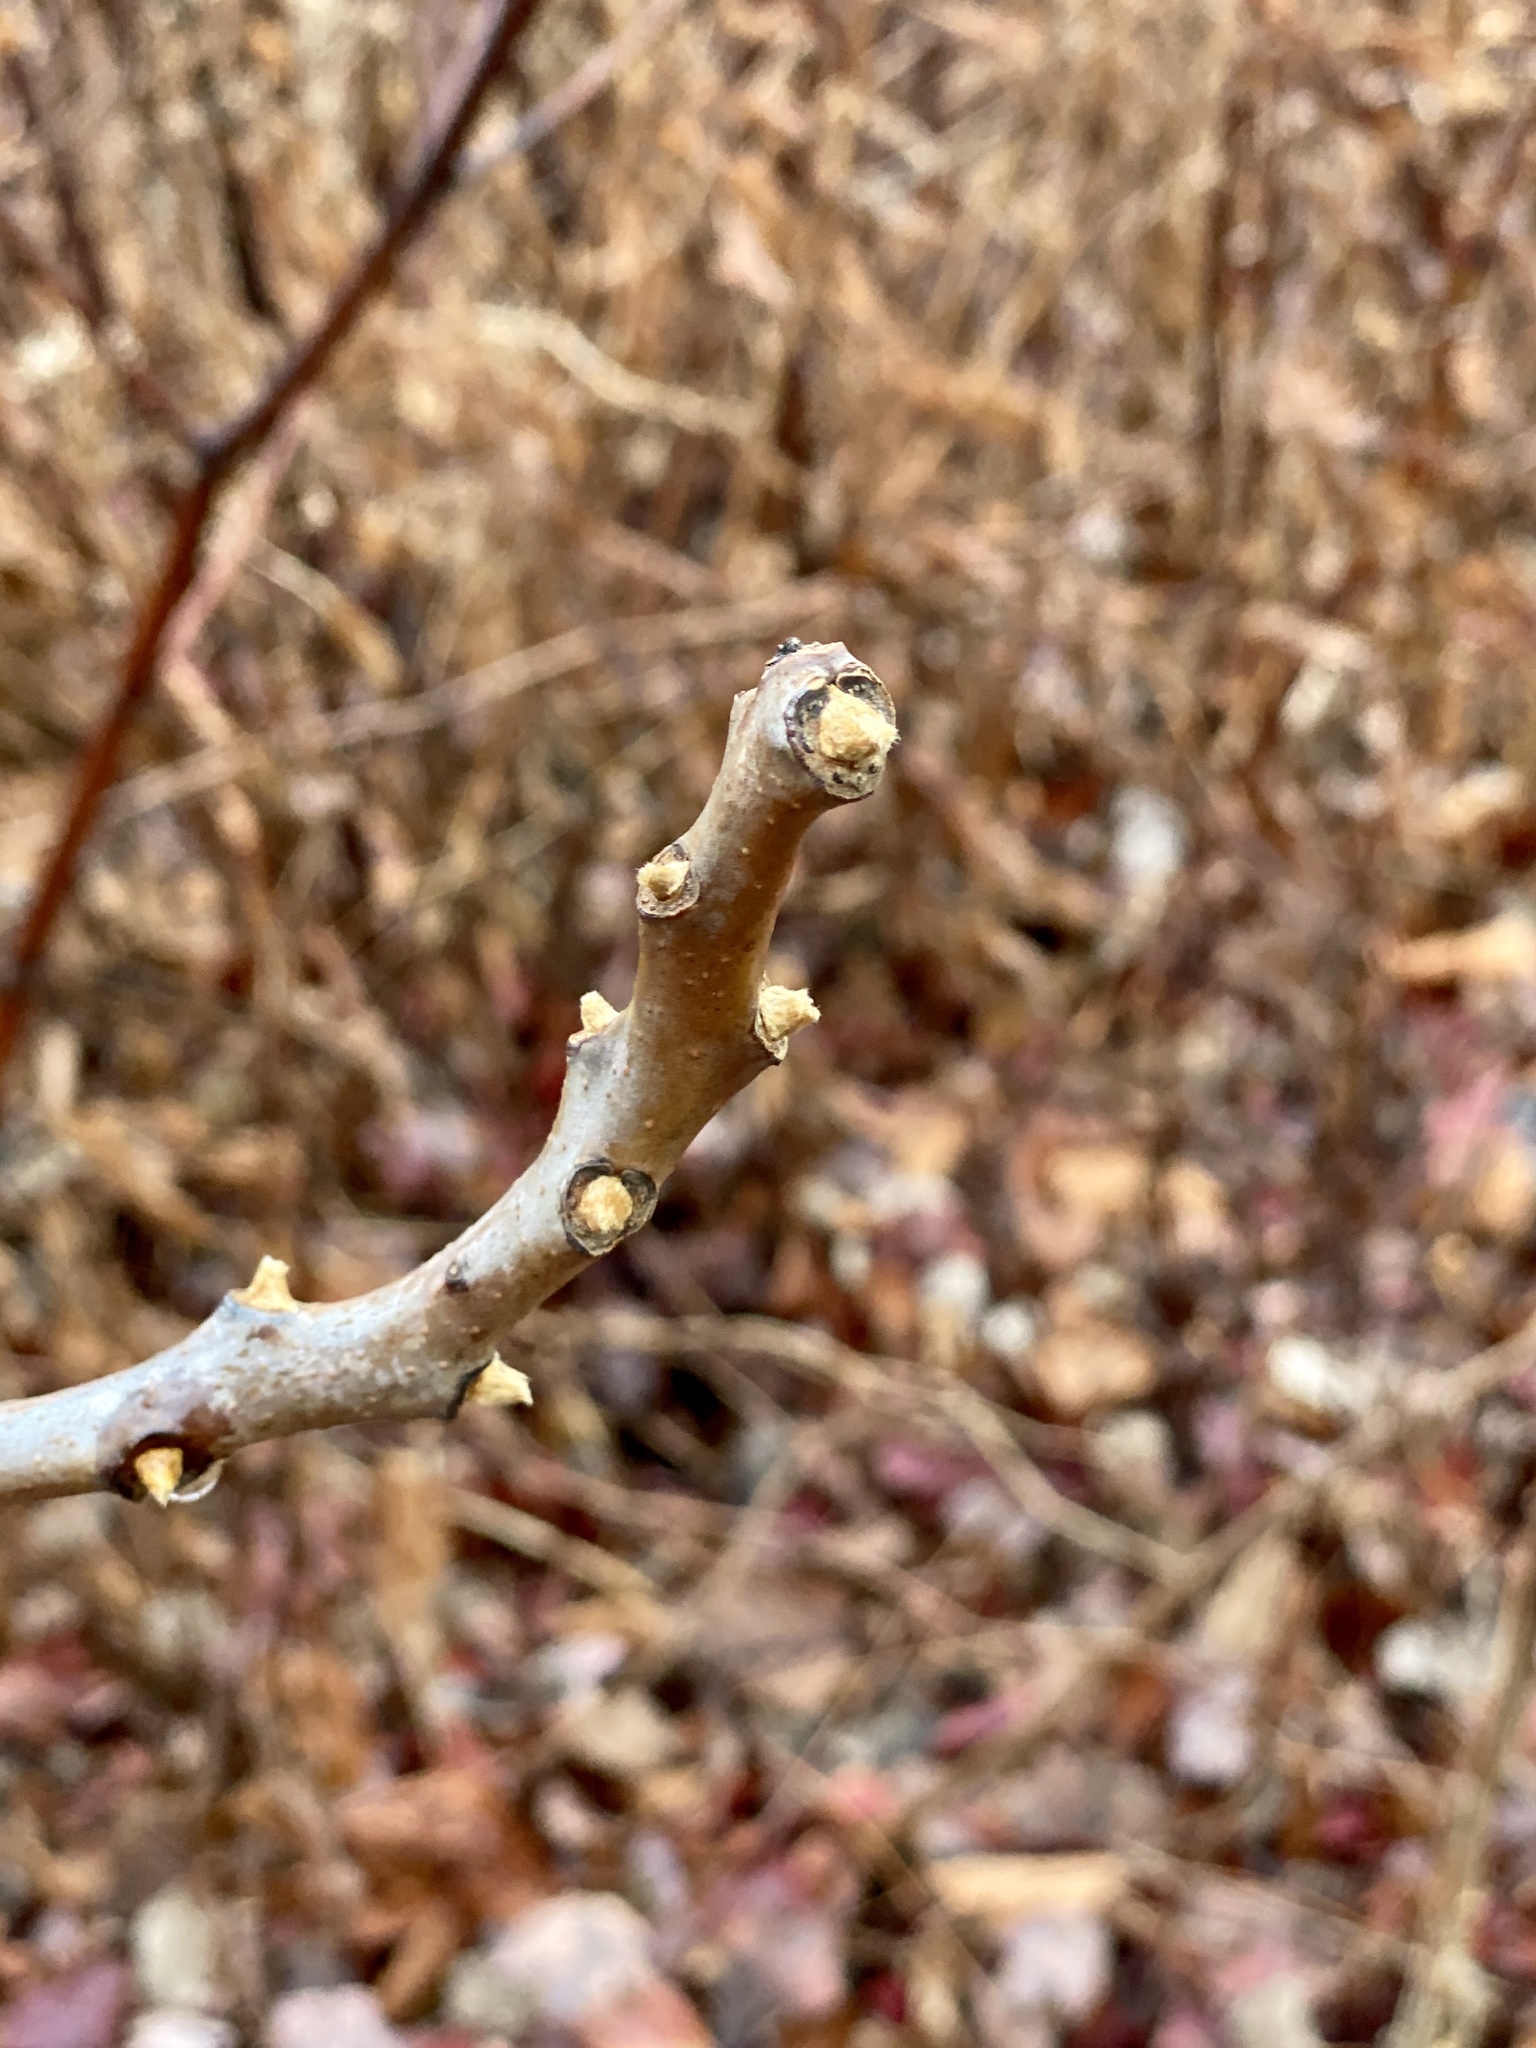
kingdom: Plantae
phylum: Tracheophyta
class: Magnoliopsida
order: Sapindales
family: Anacardiaceae
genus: Rhus
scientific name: Rhus glabra
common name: Scarlet sumac
